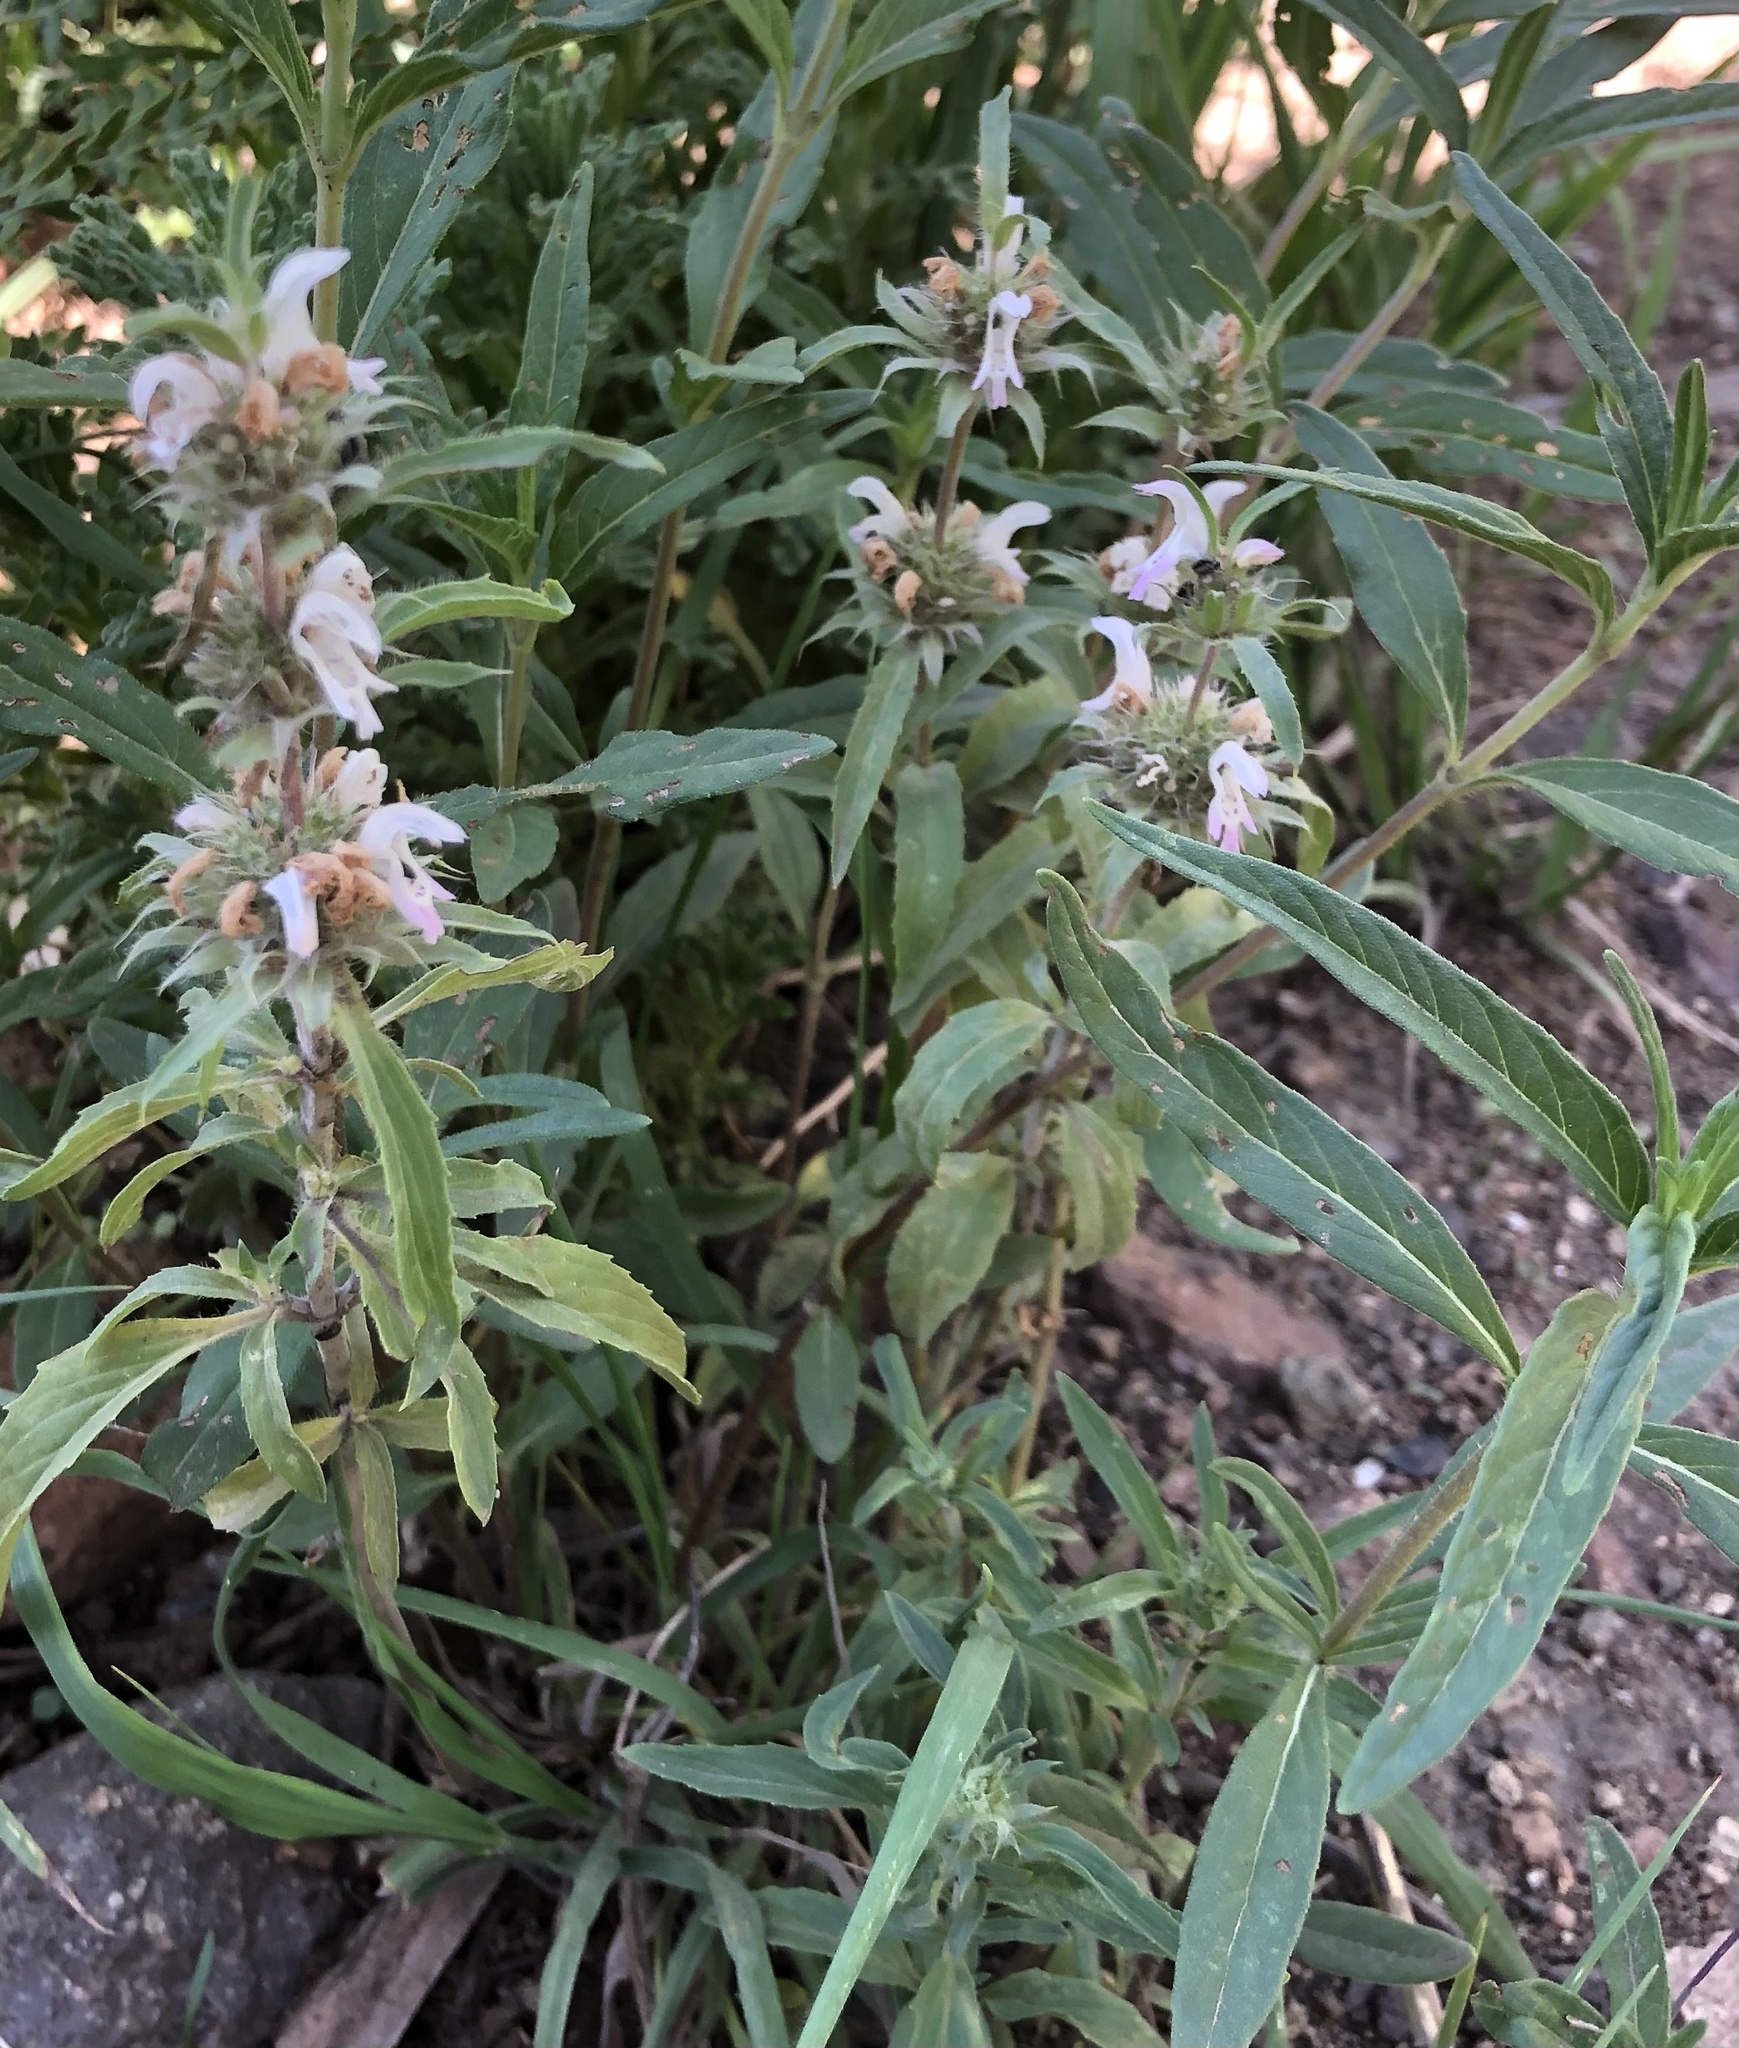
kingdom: Plantae
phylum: Tracheophyta
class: Magnoliopsida
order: Lamiales
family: Lamiaceae
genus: Monarda
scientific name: Monarda pectinata
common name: Plains beebalm
